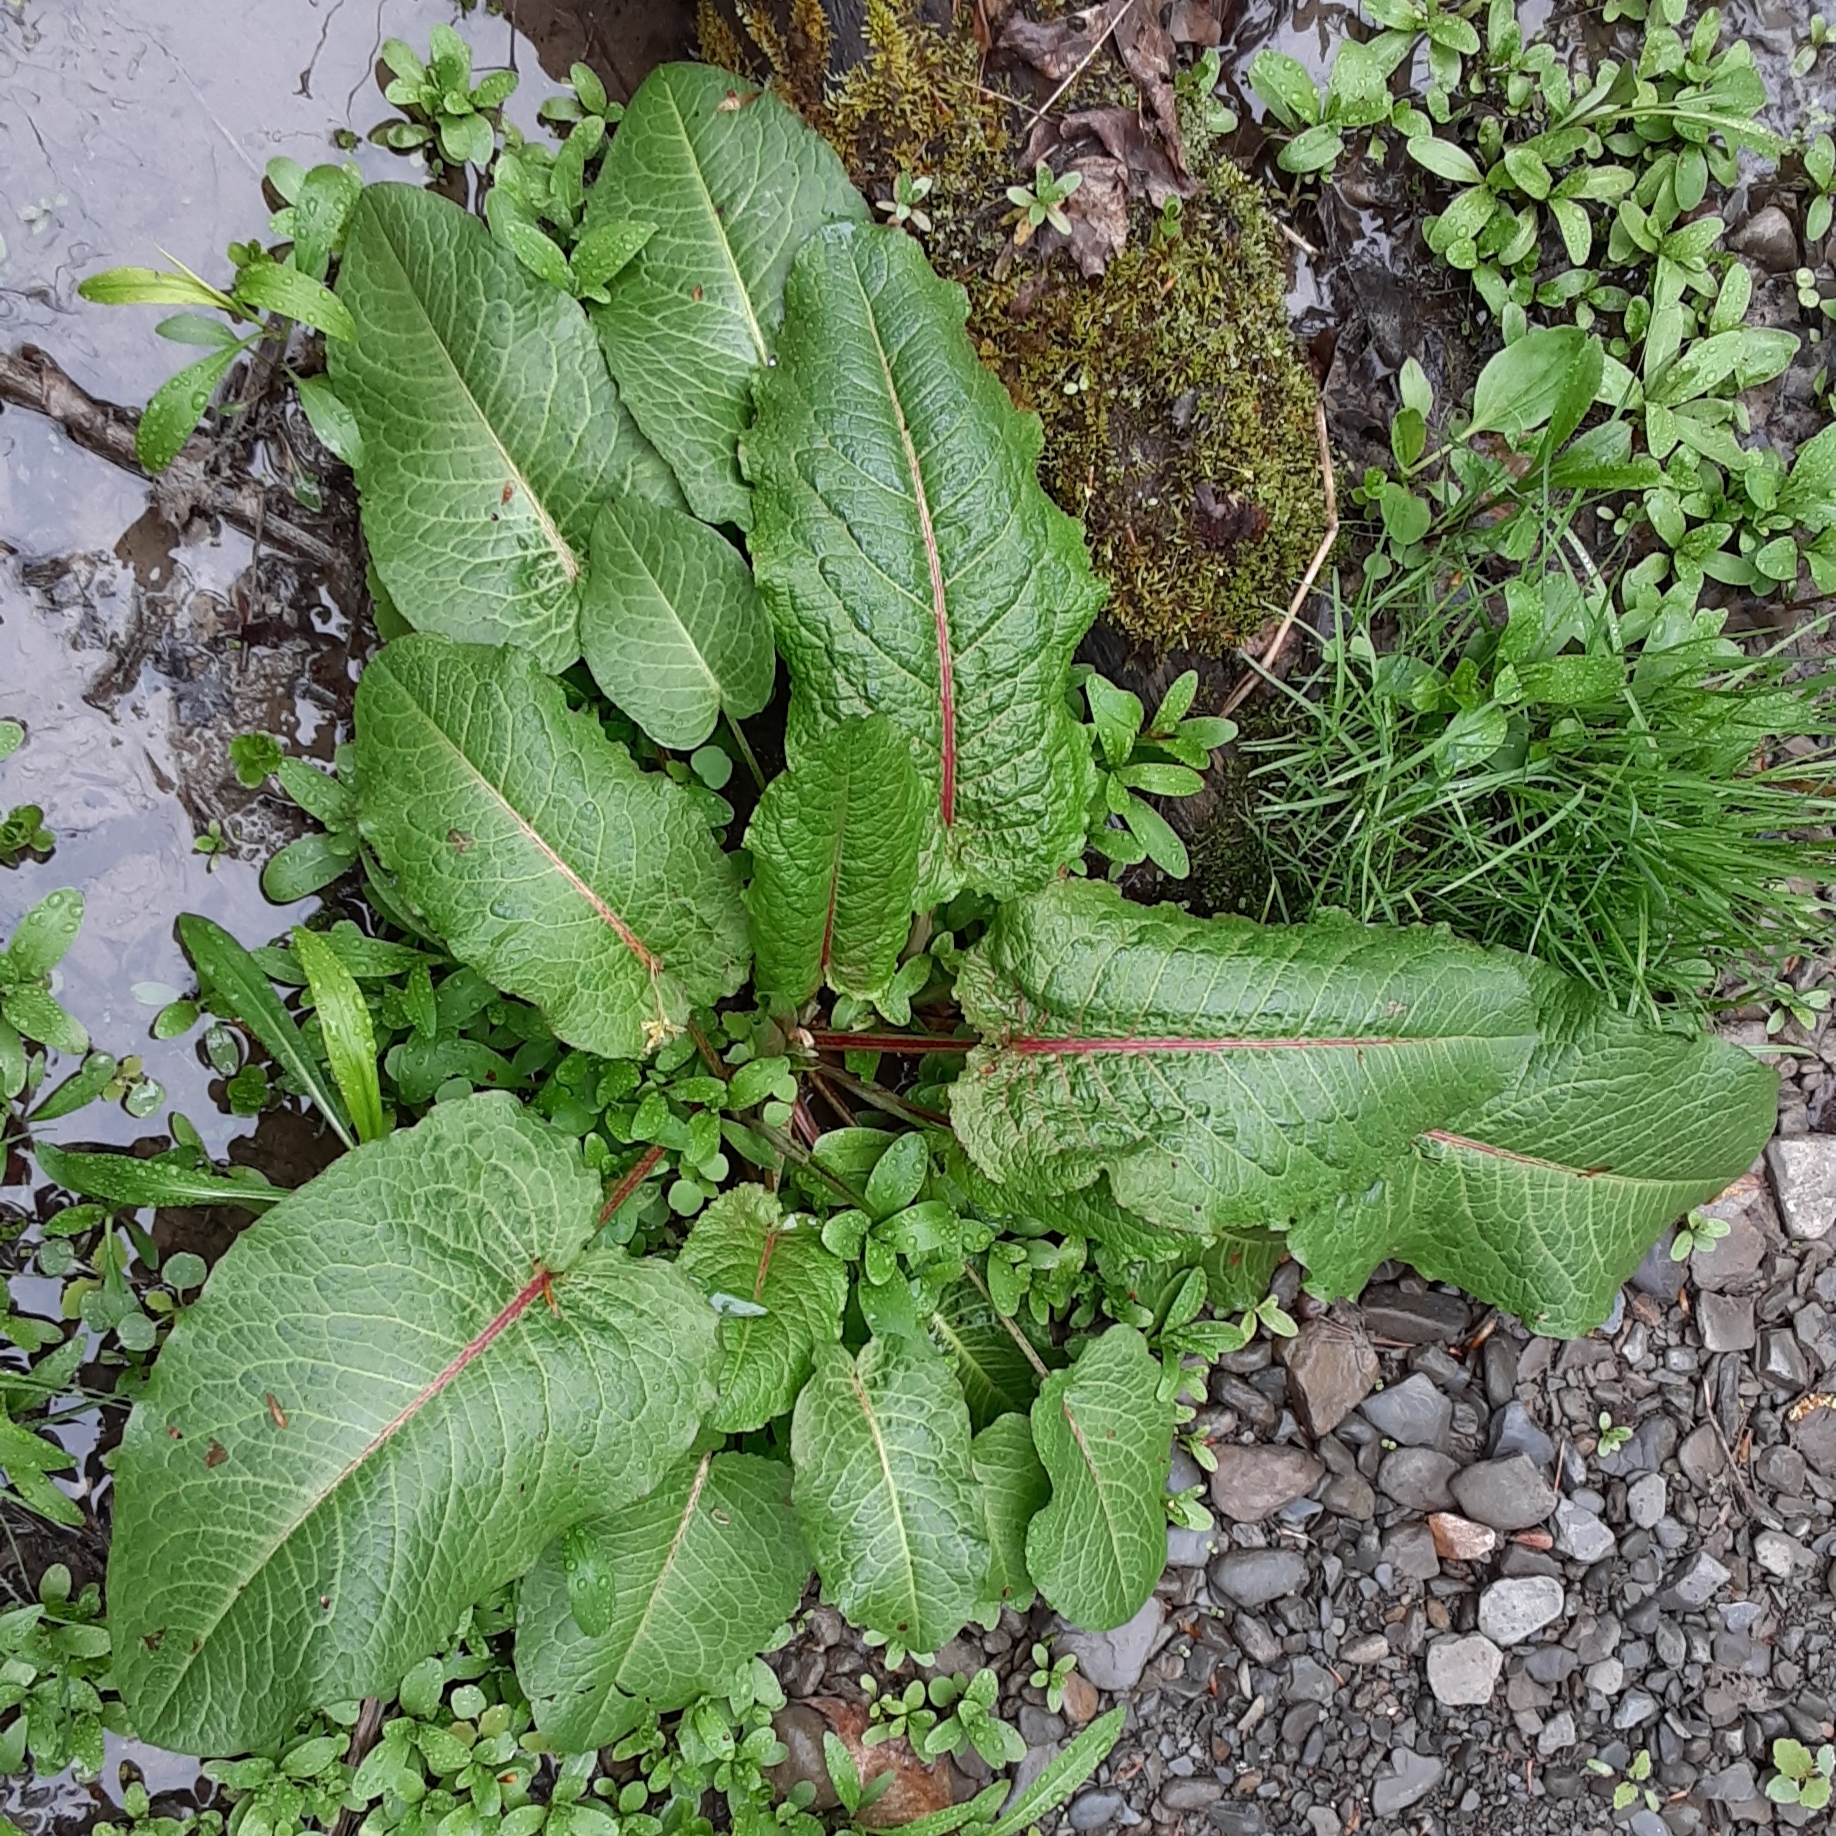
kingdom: Plantae
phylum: Tracheophyta
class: Magnoliopsida
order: Caryophyllales
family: Polygonaceae
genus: Rumex
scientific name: Rumex obtusifolius
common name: Bitter dock
